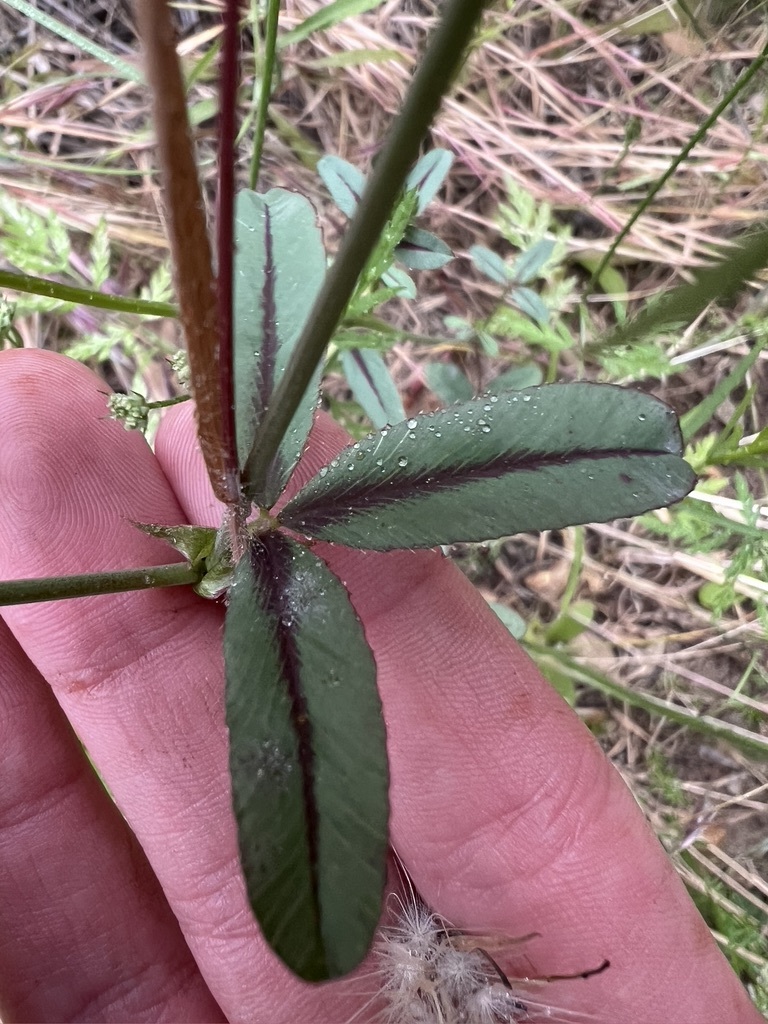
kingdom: Plantae
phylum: Tracheophyta
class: Magnoliopsida
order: Fabales
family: Fabaceae
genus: Trifolium
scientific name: Trifolium ciliolatum
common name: Foothill clover
